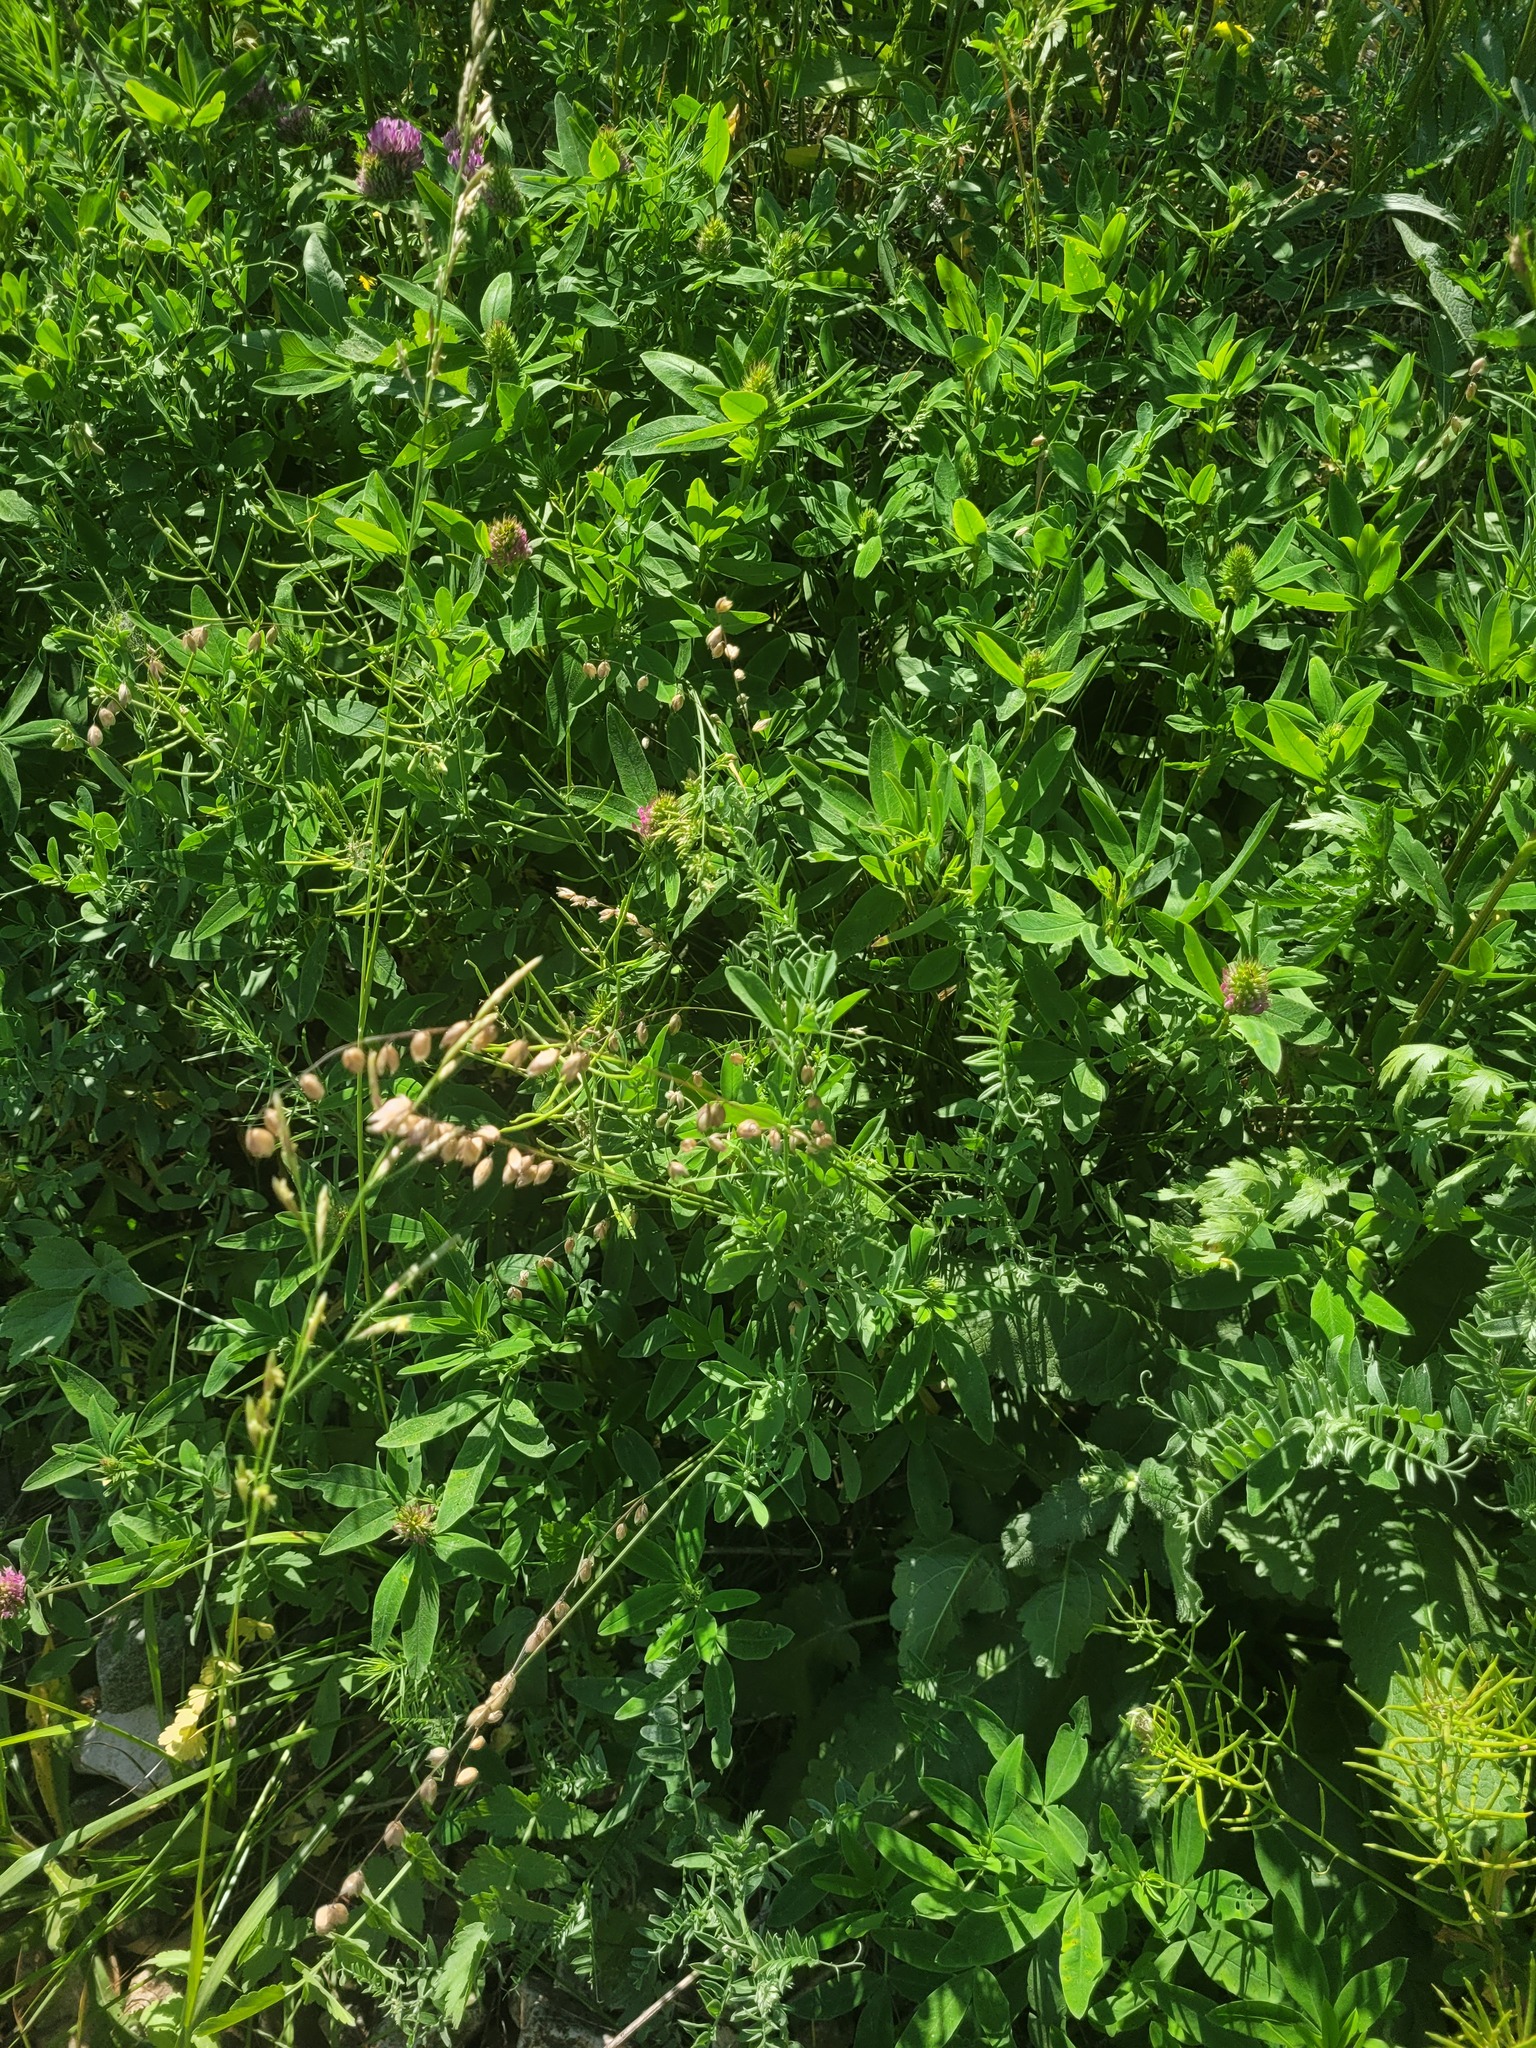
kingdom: Plantae
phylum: Tracheophyta
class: Liliopsida
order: Poales
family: Poaceae
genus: Melica
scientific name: Melica nutans
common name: Mountain melick
